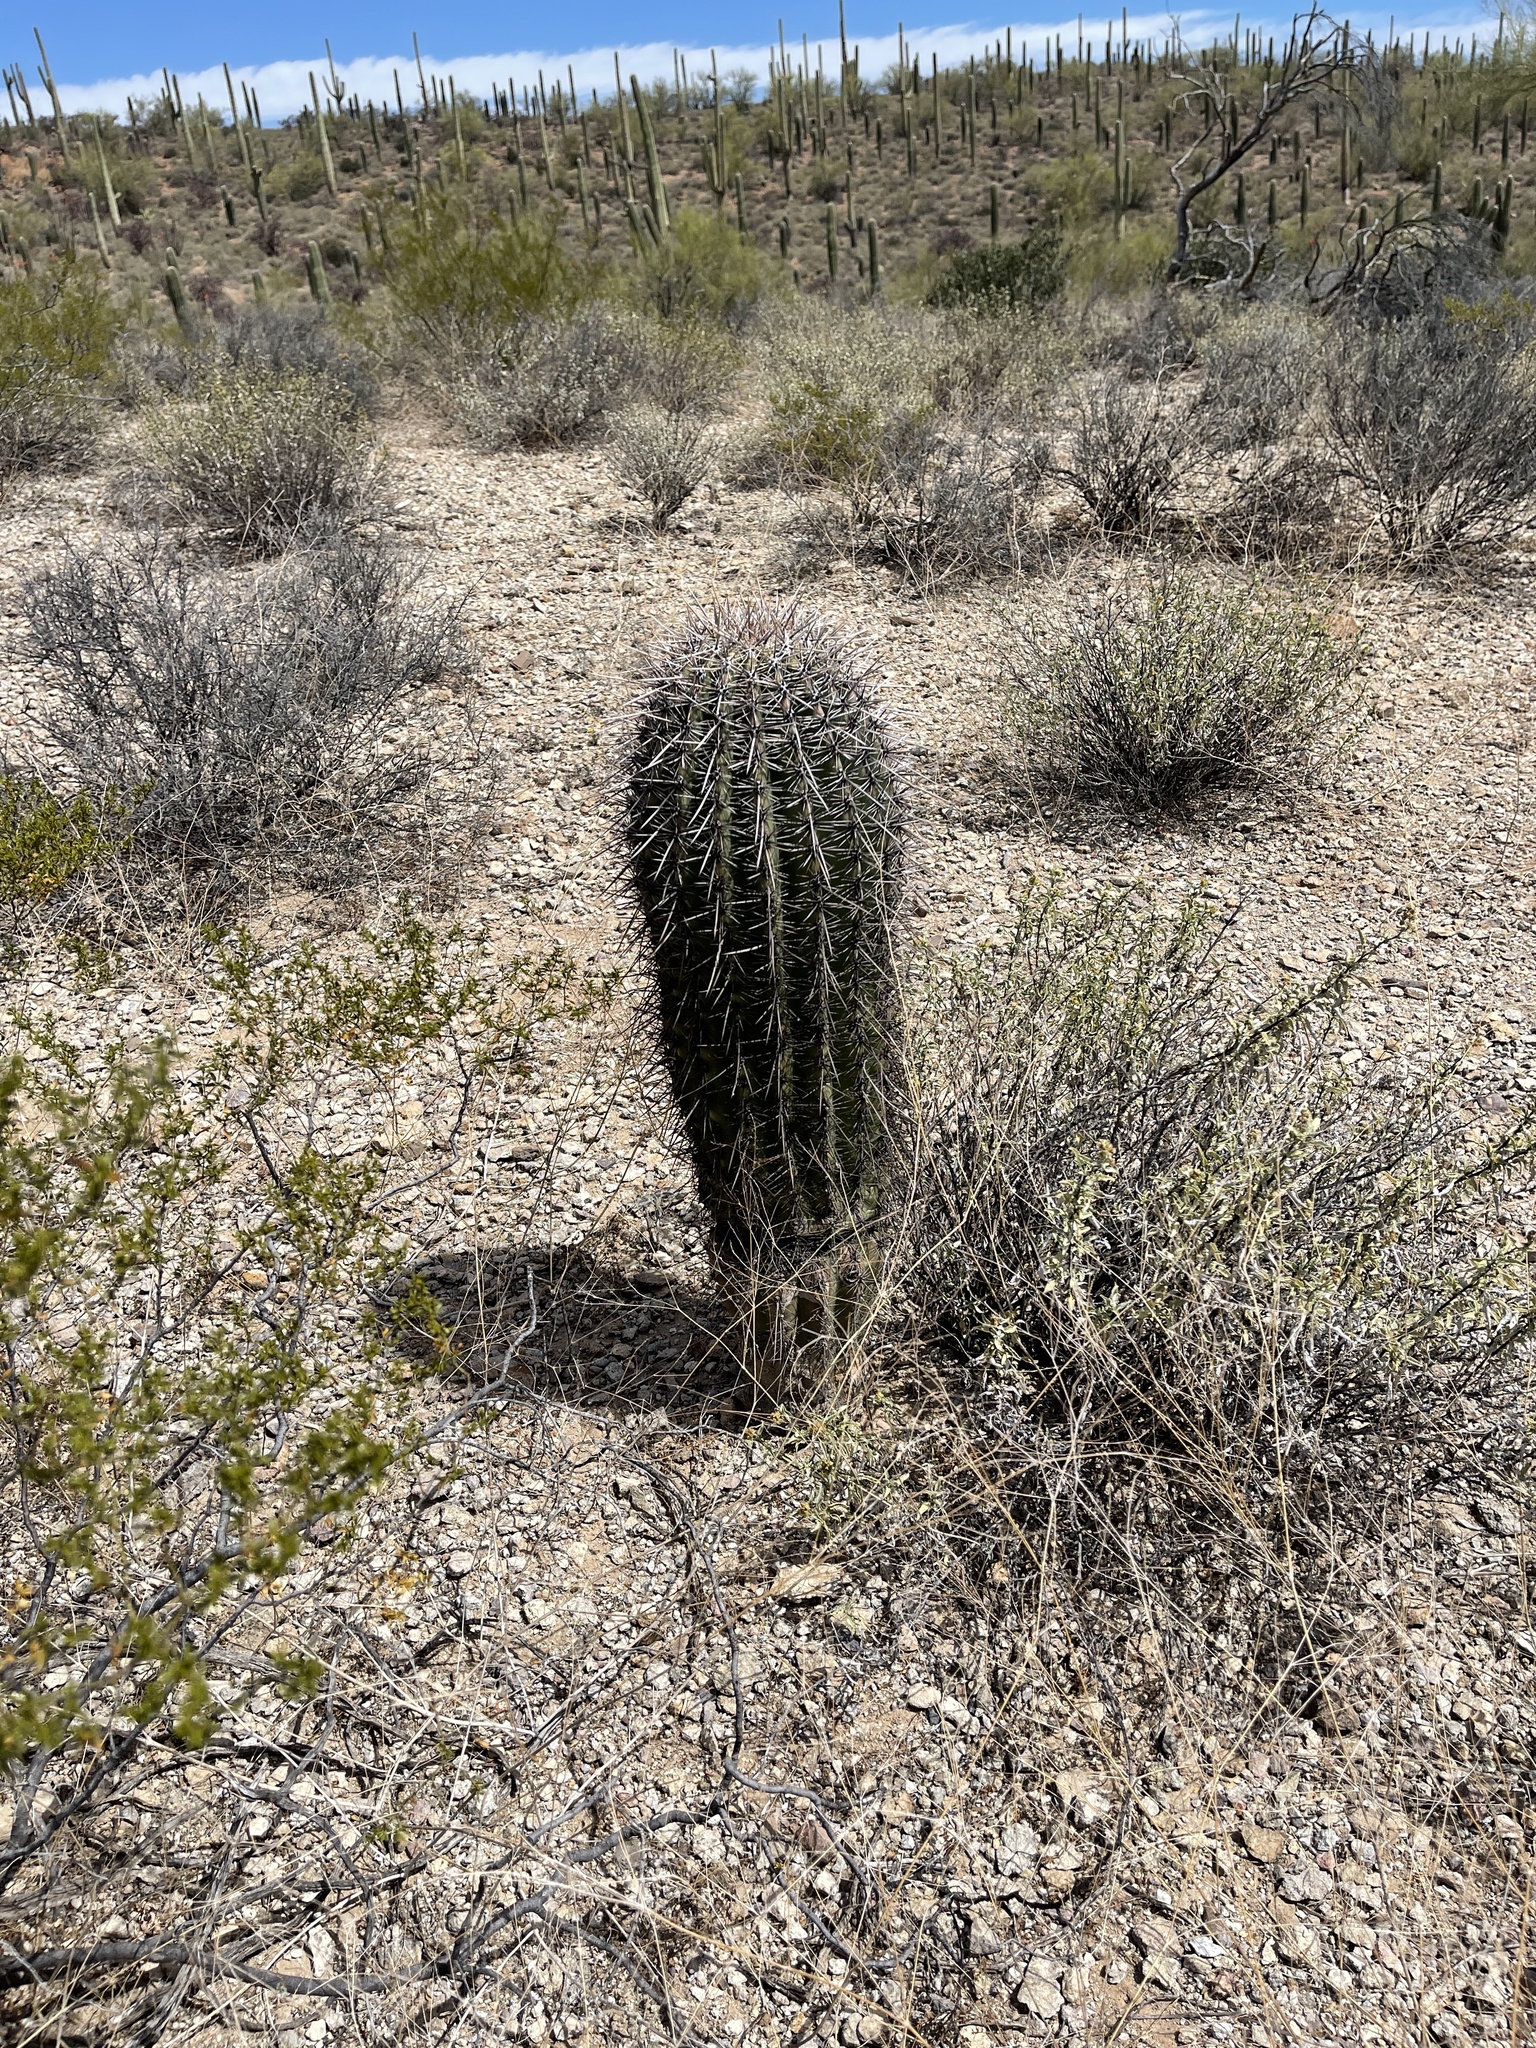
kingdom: Plantae
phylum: Tracheophyta
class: Magnoliopsida
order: Caryophyllales
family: Cactaceae
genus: Carnegiea
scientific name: Carnegiea gigantea
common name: Saguaro
